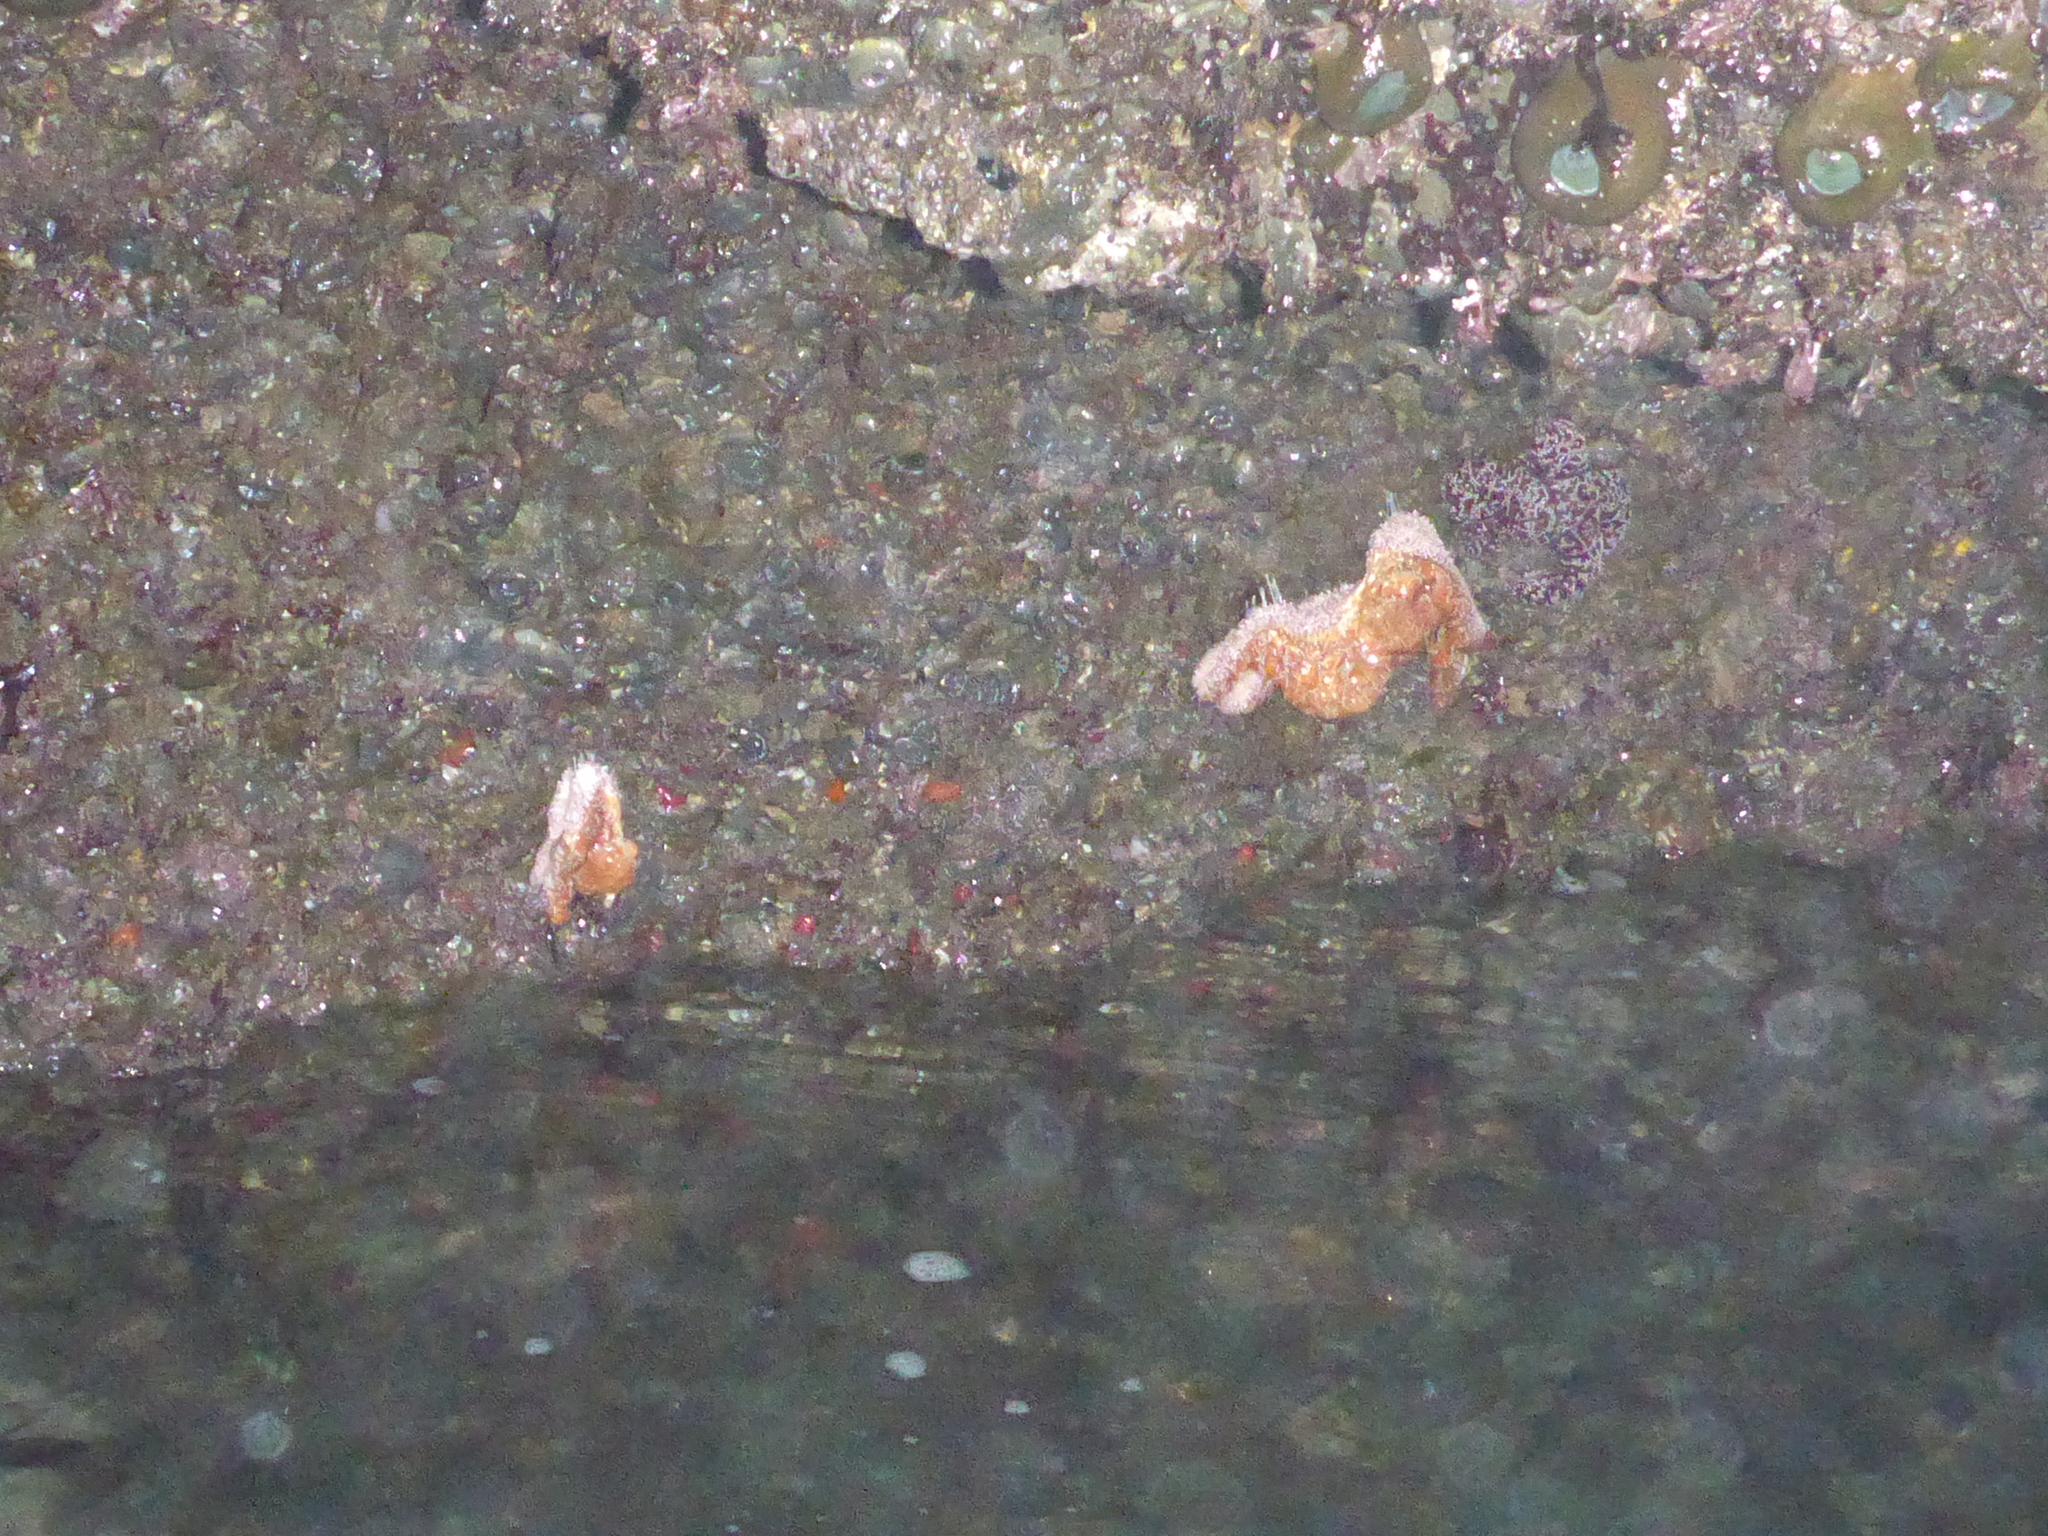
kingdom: Animalia
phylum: Echinodermata
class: Asteroidea
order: Forcipulatida
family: Asteriidae
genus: Pisaster
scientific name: Pisaster ochraceus
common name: Ochre stars
